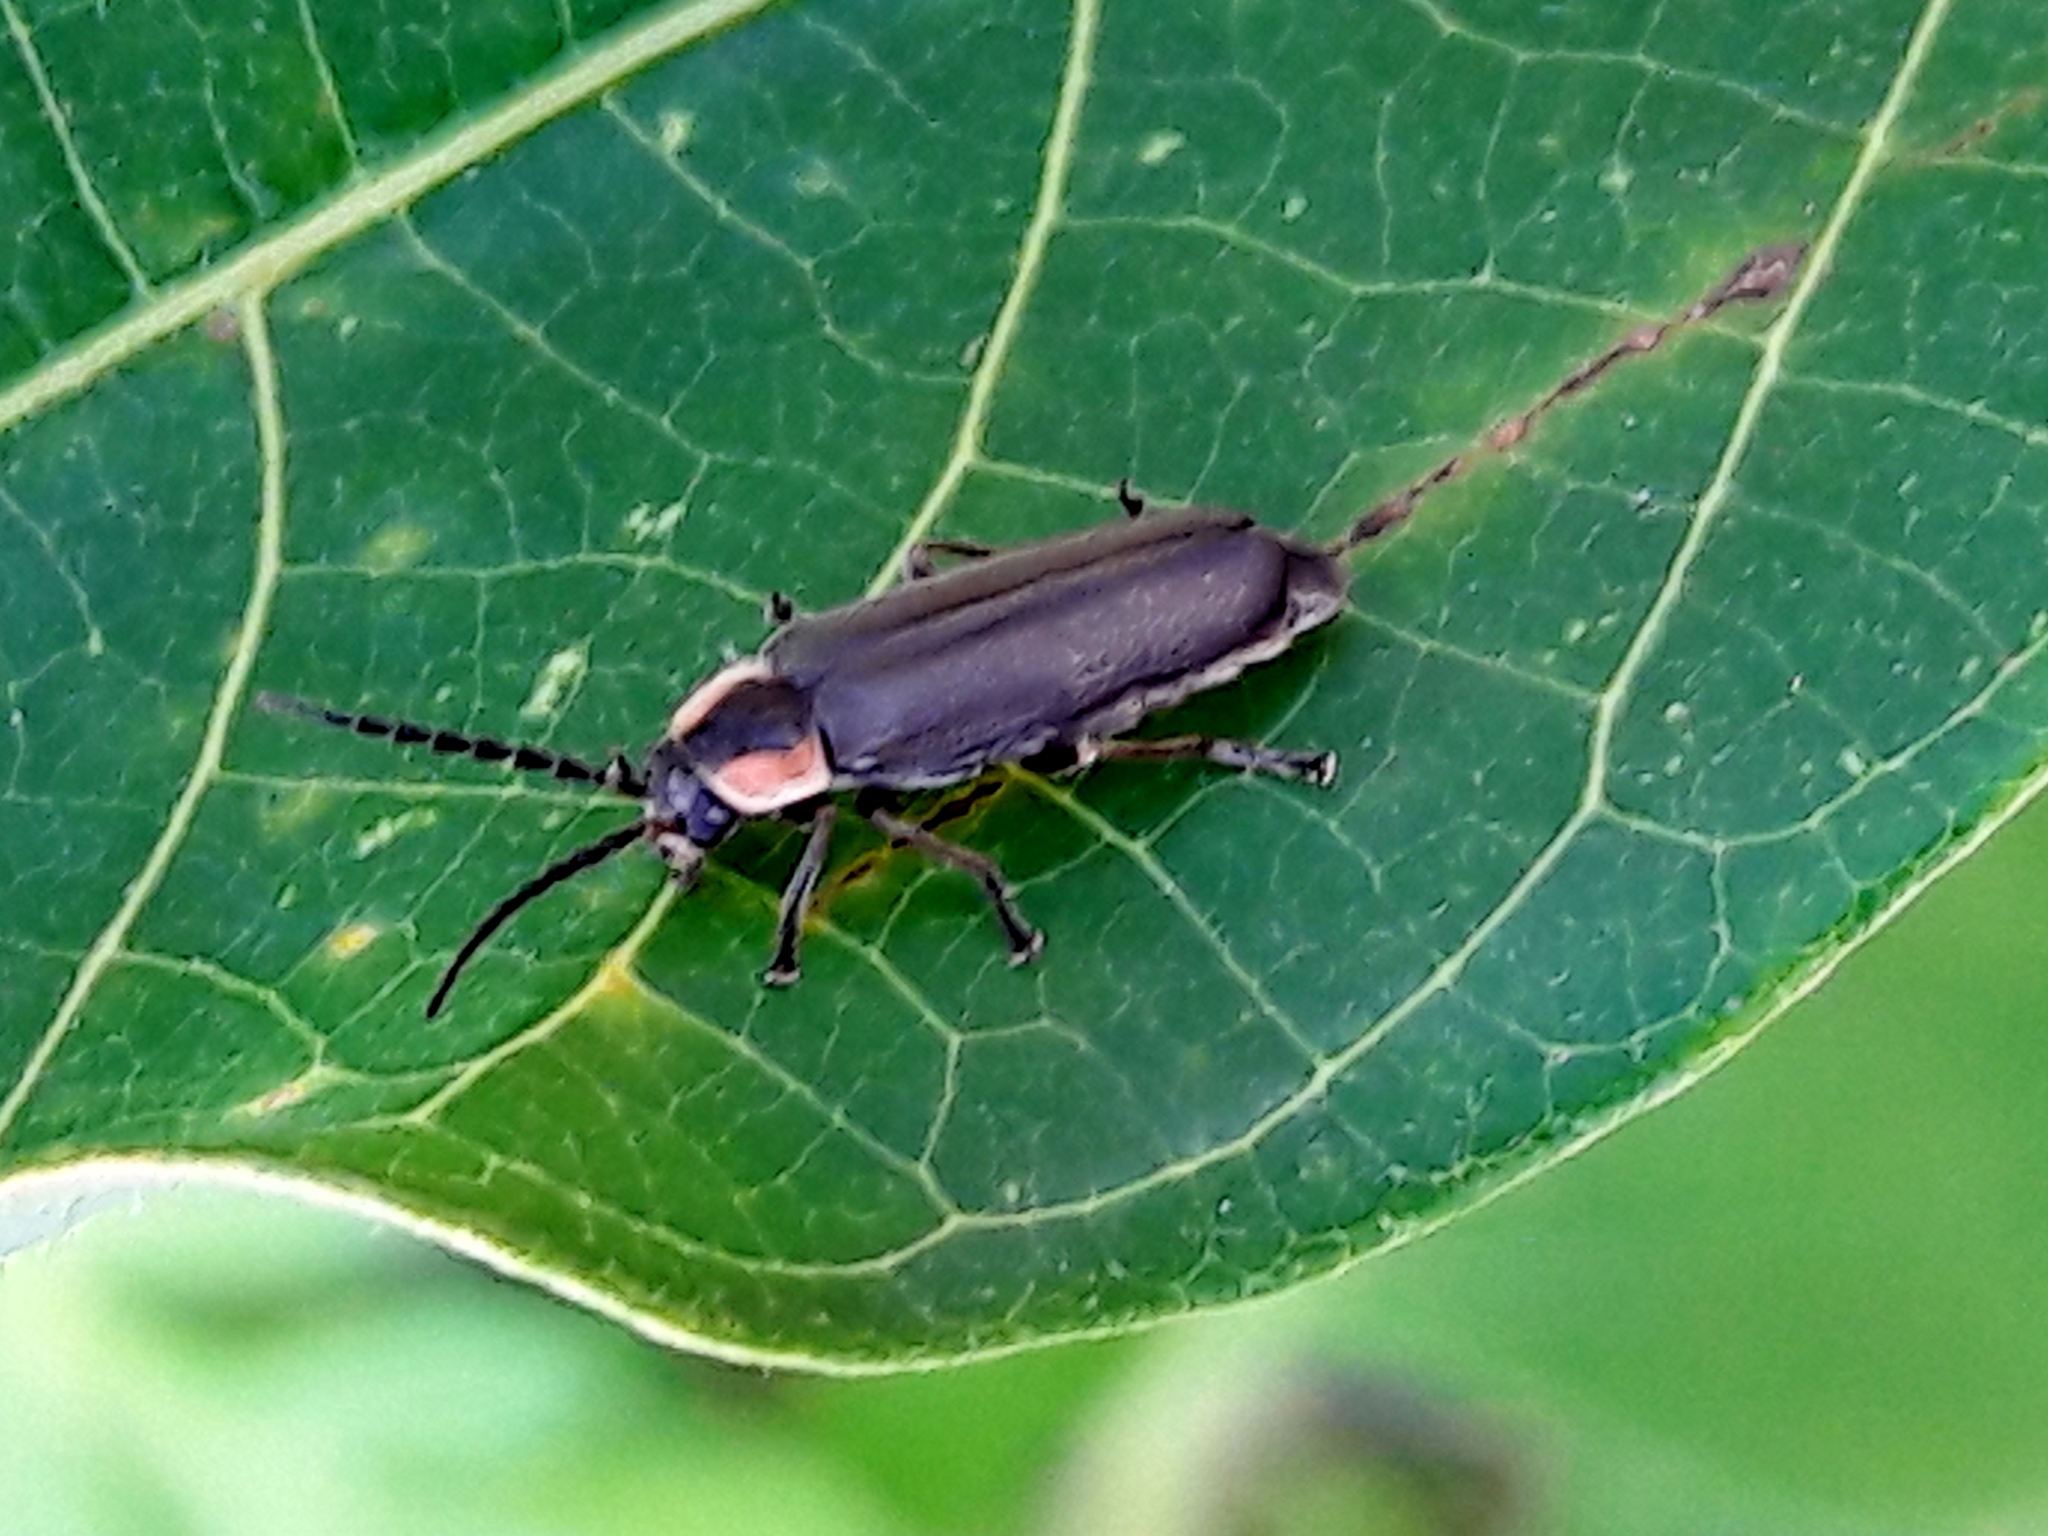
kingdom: Animalia
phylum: Arthropoda
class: Insecta
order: Coleoptera
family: Cantharidae
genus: Discodon
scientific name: Discodon
